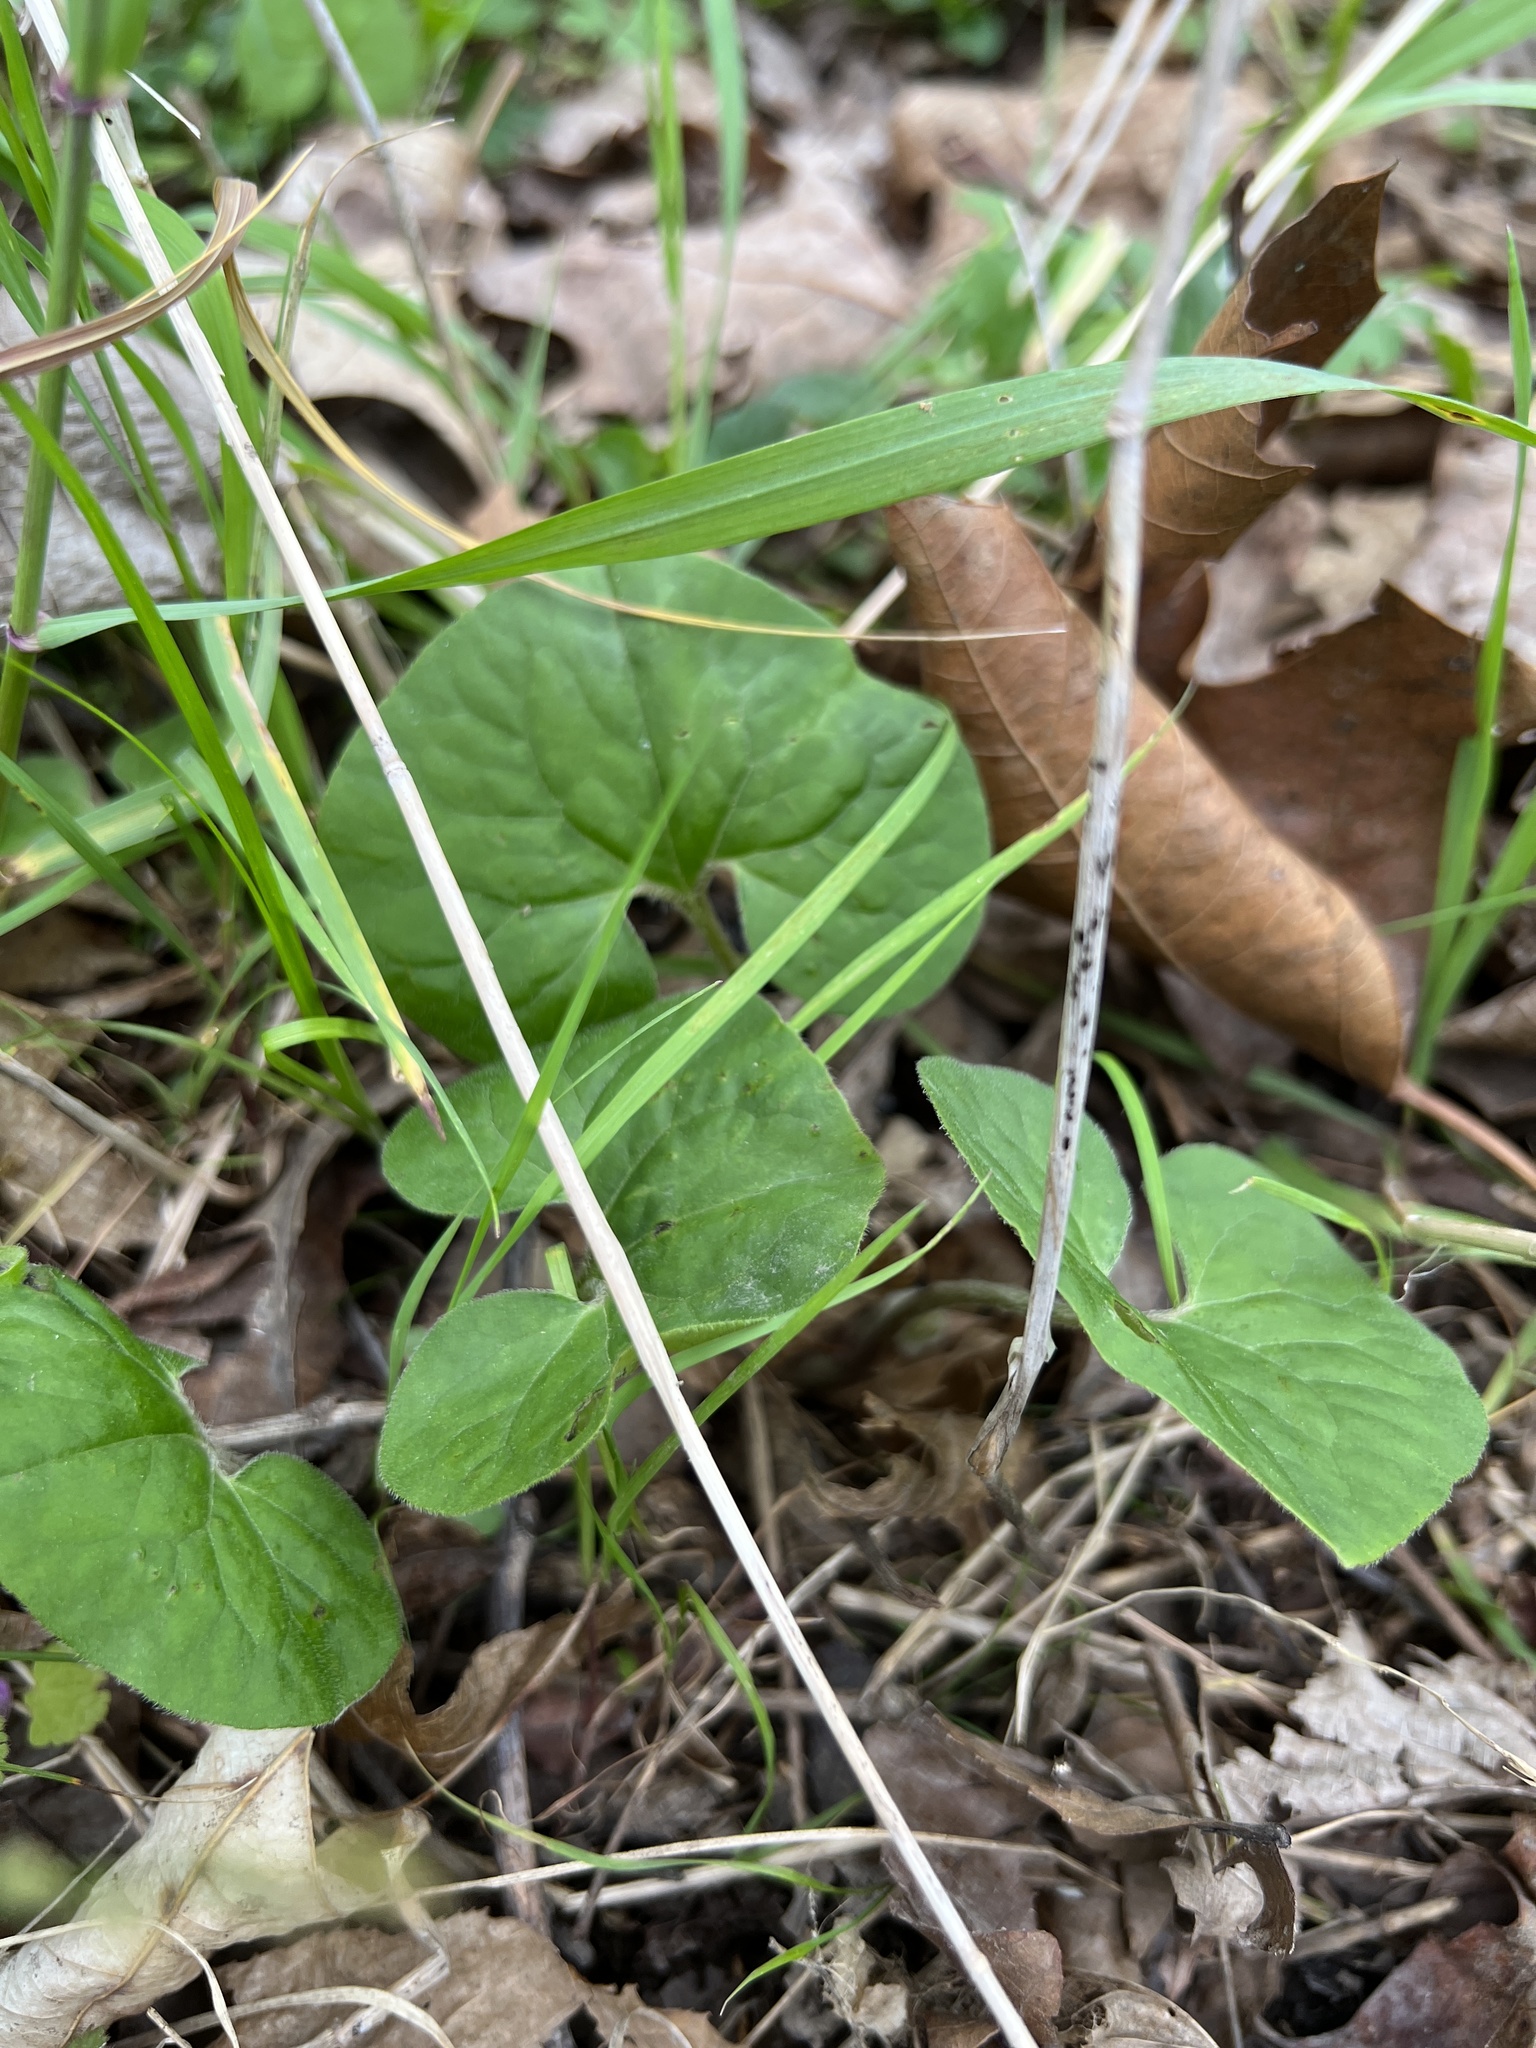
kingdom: Plantae
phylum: Tracheophyta
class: Magnoliopsida
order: Piperales
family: Aristolochiaceae
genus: Asarum
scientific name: Asarum canadense
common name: Wild ginger
